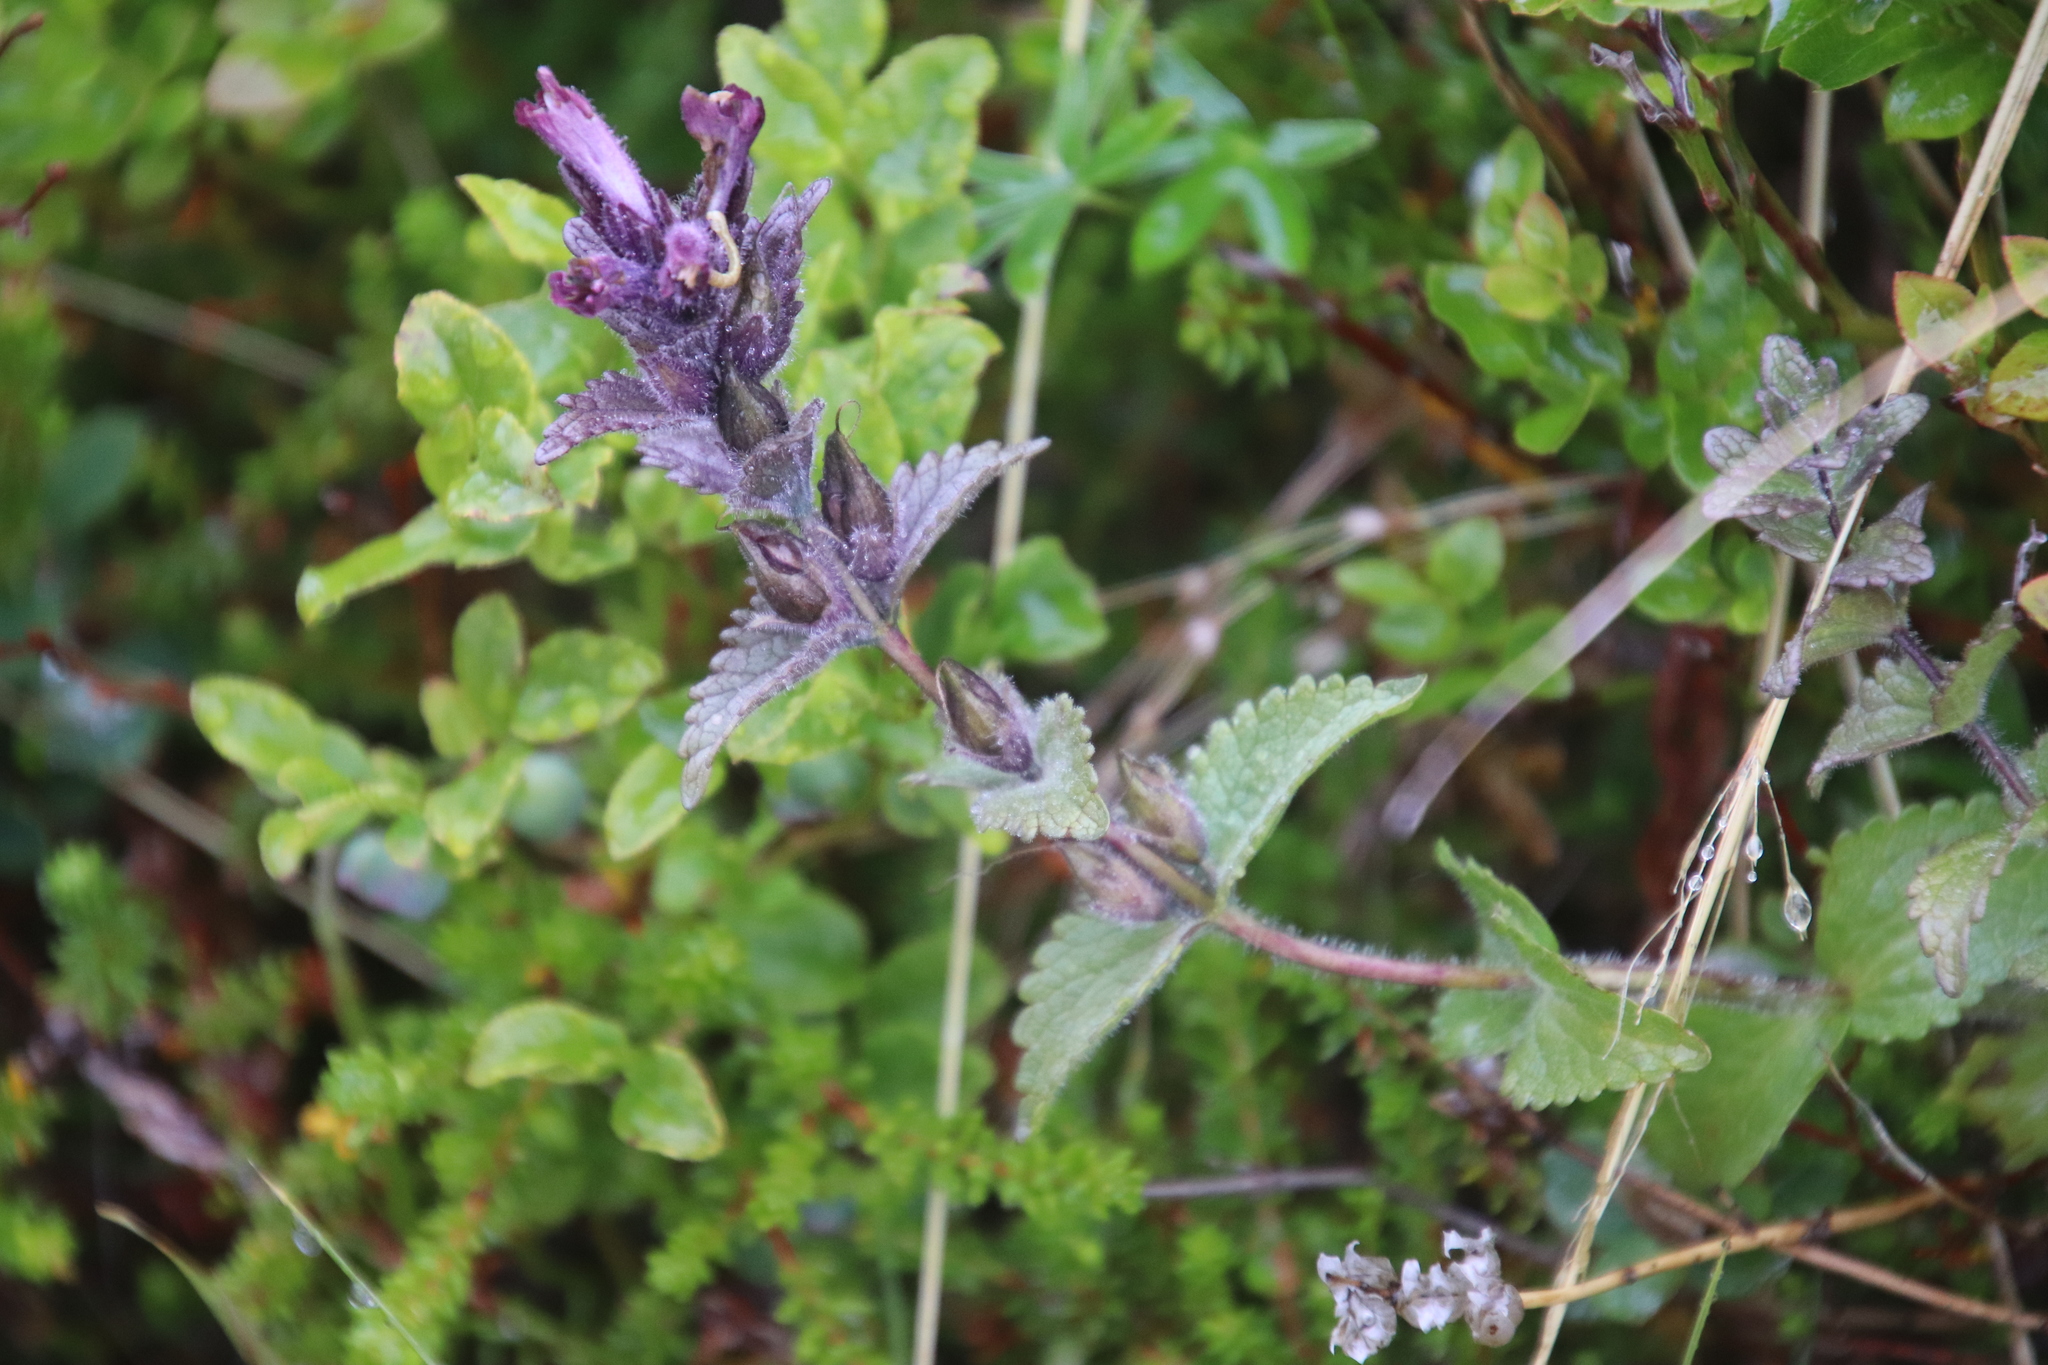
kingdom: Plantae
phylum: Tracheophyta
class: Magnoliopsida
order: Lamiales
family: Orobanchaceae
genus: Bartsia
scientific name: Bartsia alpina
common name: Alpine bartsia
